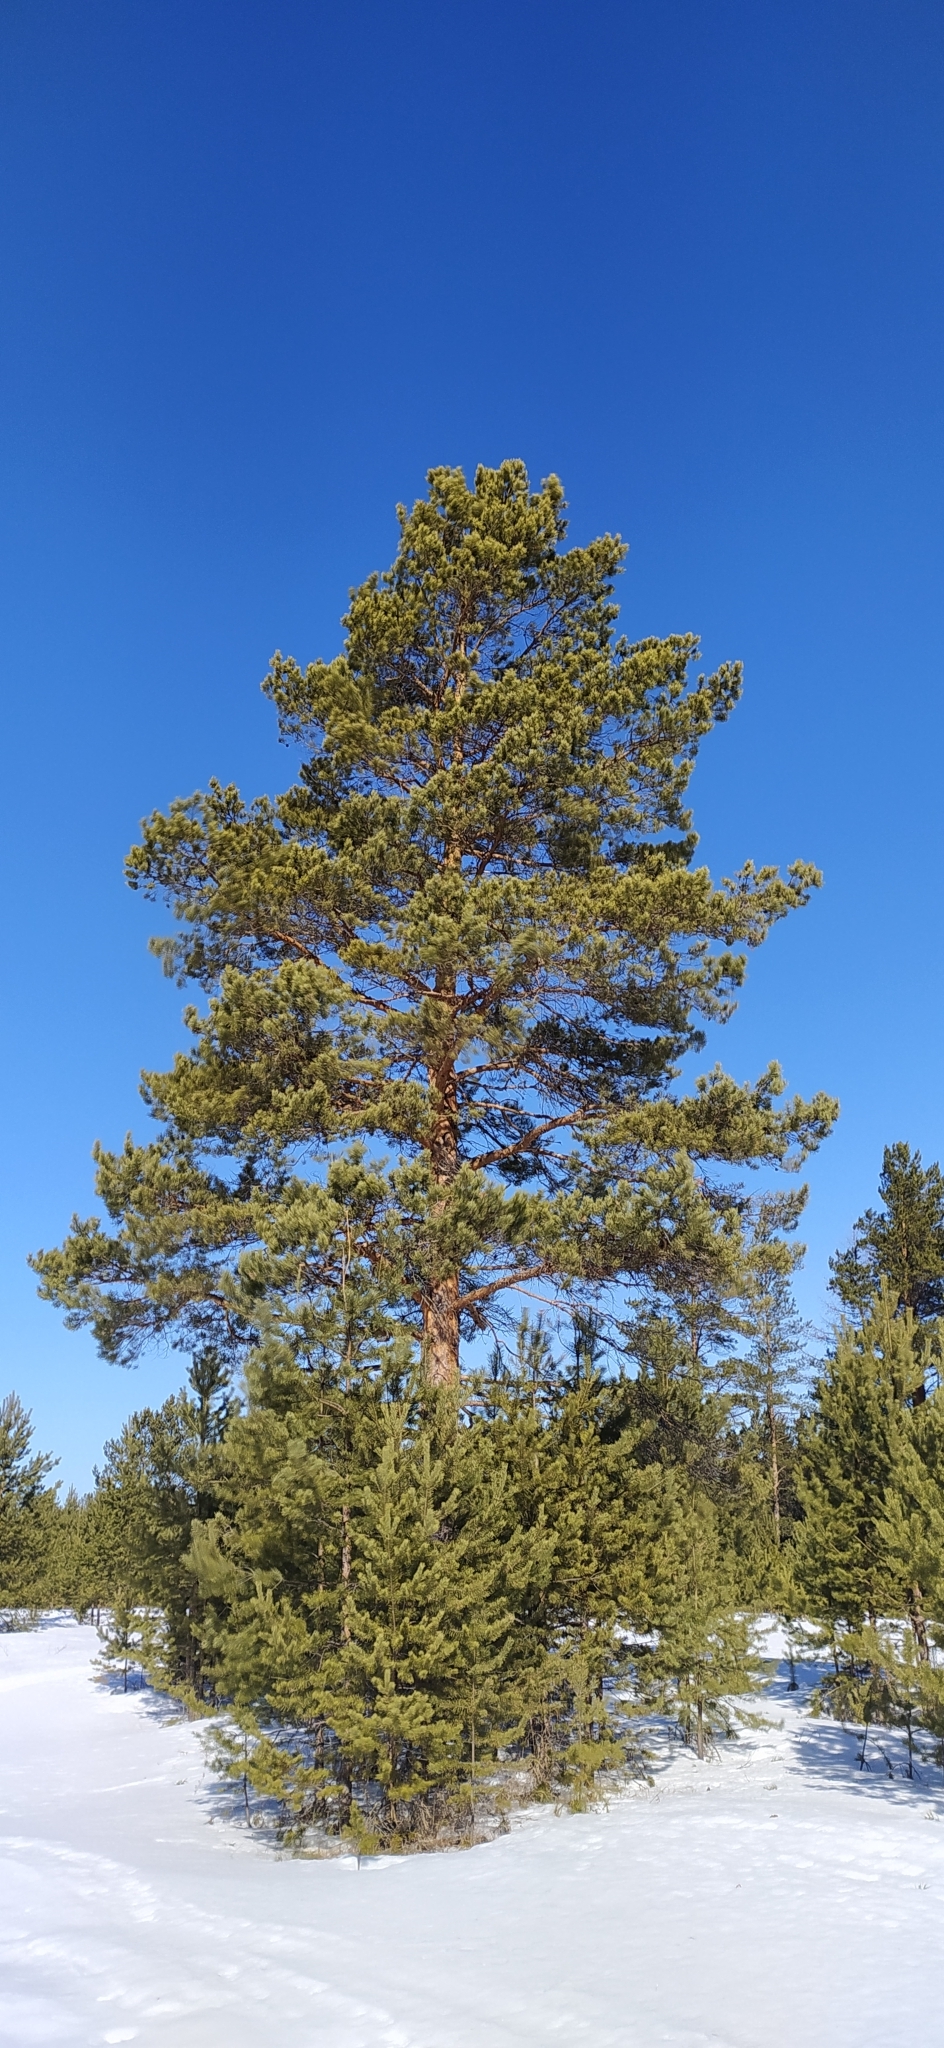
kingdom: Plantae
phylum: Tracheophyta
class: Pinopsida
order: Pinales
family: Pinaceae
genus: Pinus
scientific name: Pinus sylvestris
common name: Scots pine
